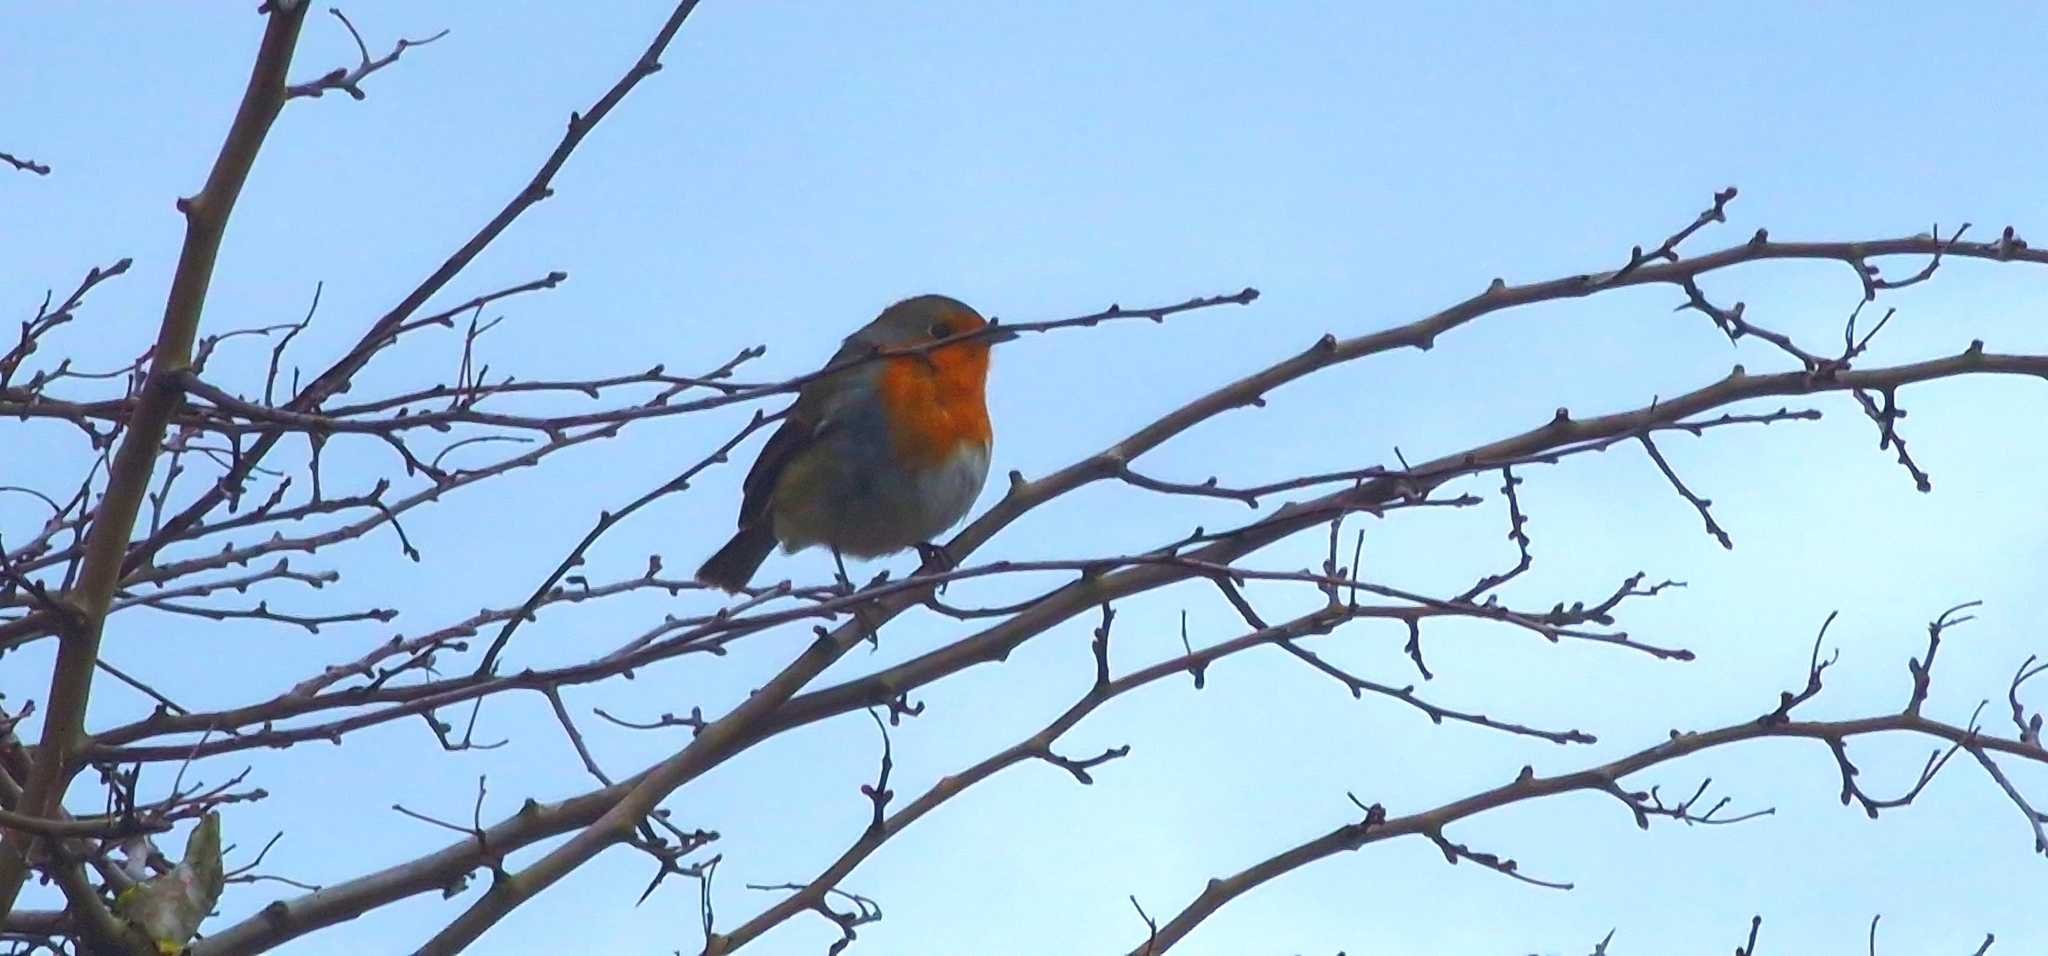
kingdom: Animalia
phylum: Chordata
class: Aves
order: Passeriformes
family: Muscicapidae
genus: Erithacus
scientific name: Erithacus rubecula
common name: European robin
